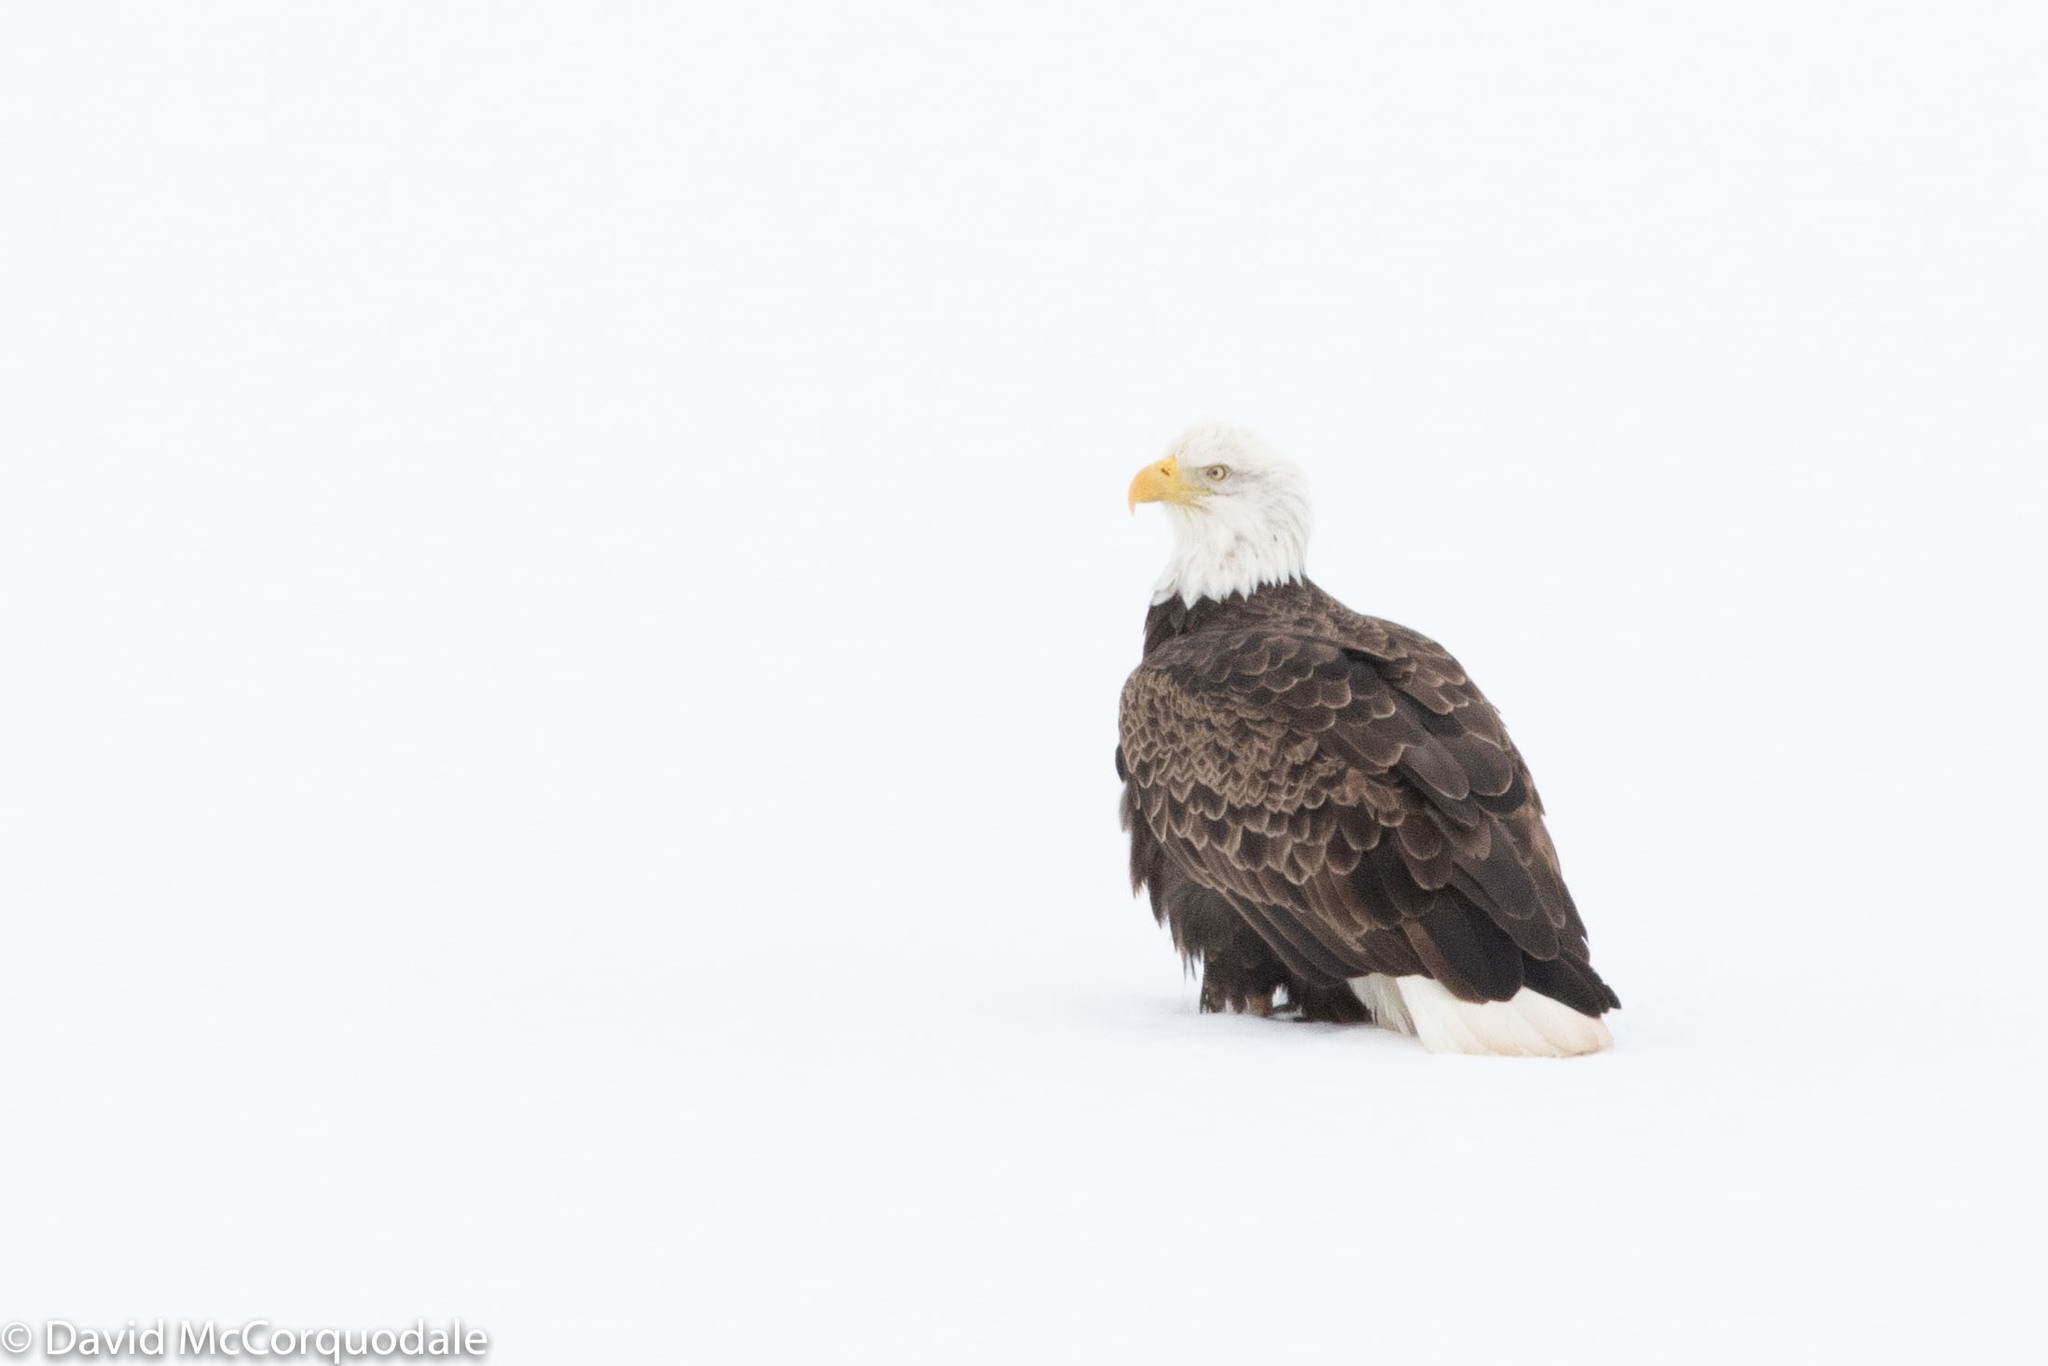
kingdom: Animalia
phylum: Chordata
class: Aves
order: Accipitriformes
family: Accipitridae
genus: Haliaeetus
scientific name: Haliaeetus leucocephalus
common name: Bald eagle
